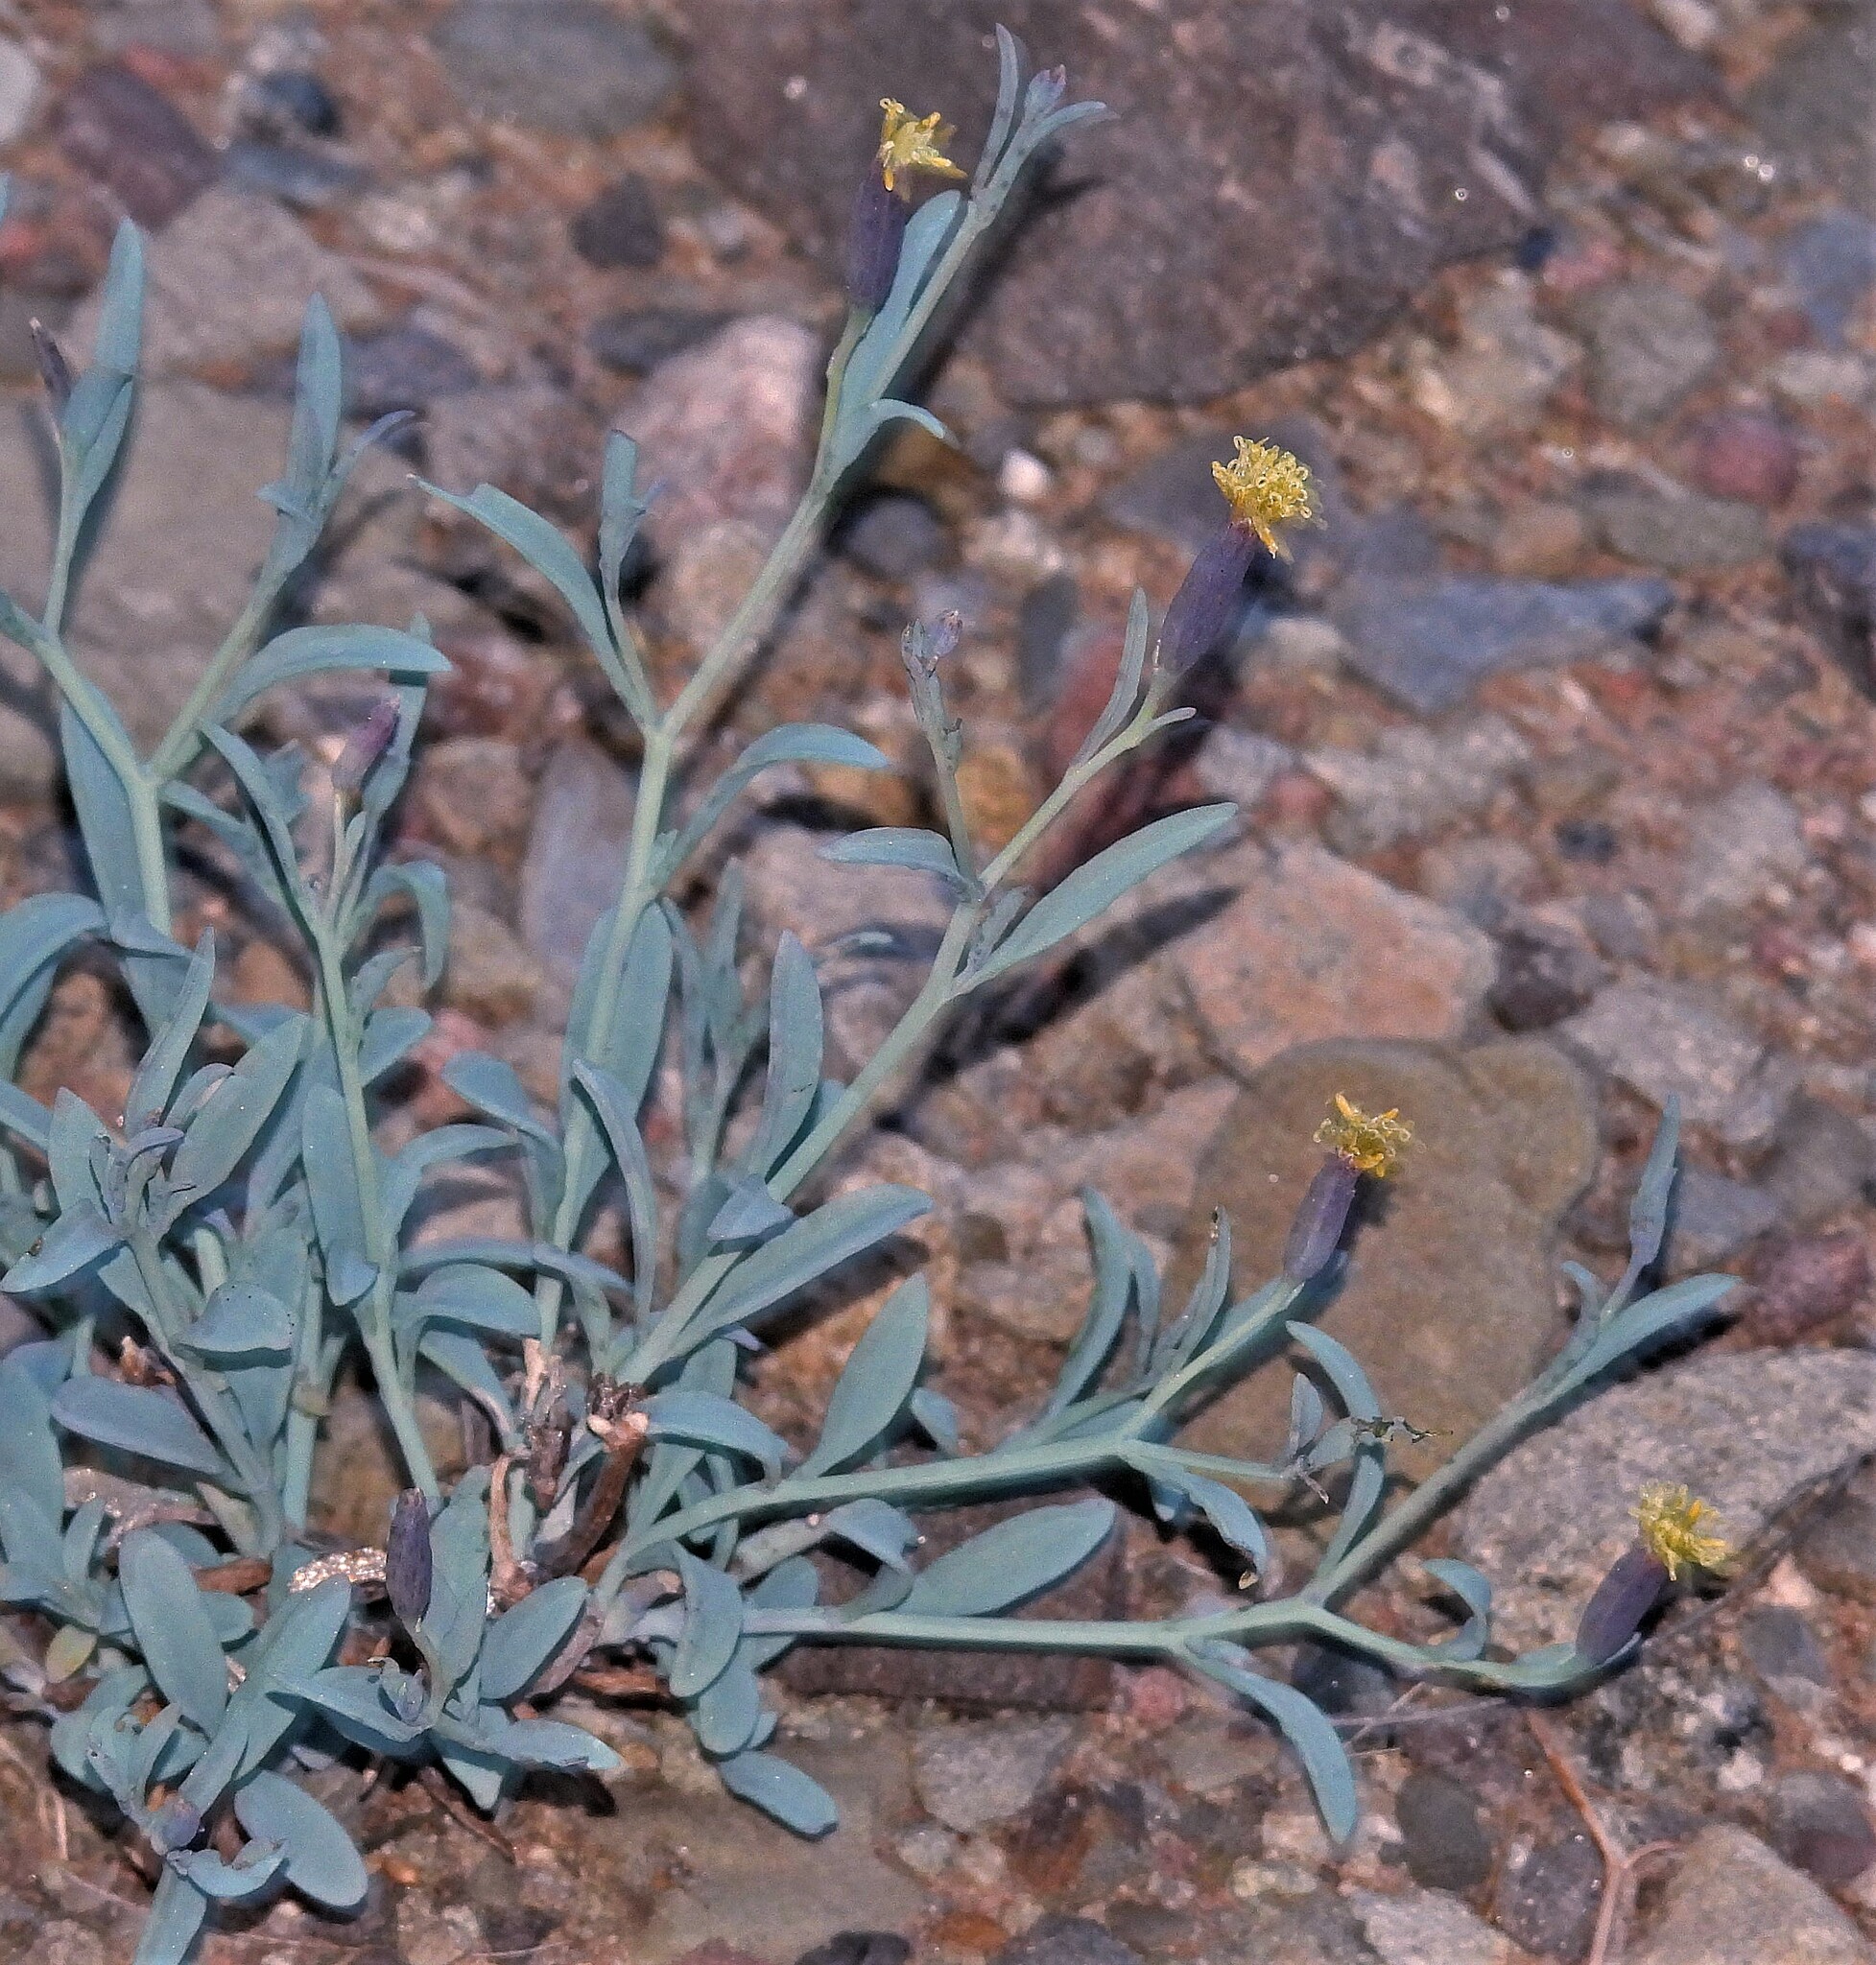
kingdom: Plantae
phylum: Tracheophyta
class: Magnoliopsida
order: Asterales
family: Asteraceae
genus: Porophyllum
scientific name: Porophyllum lanceolatum
